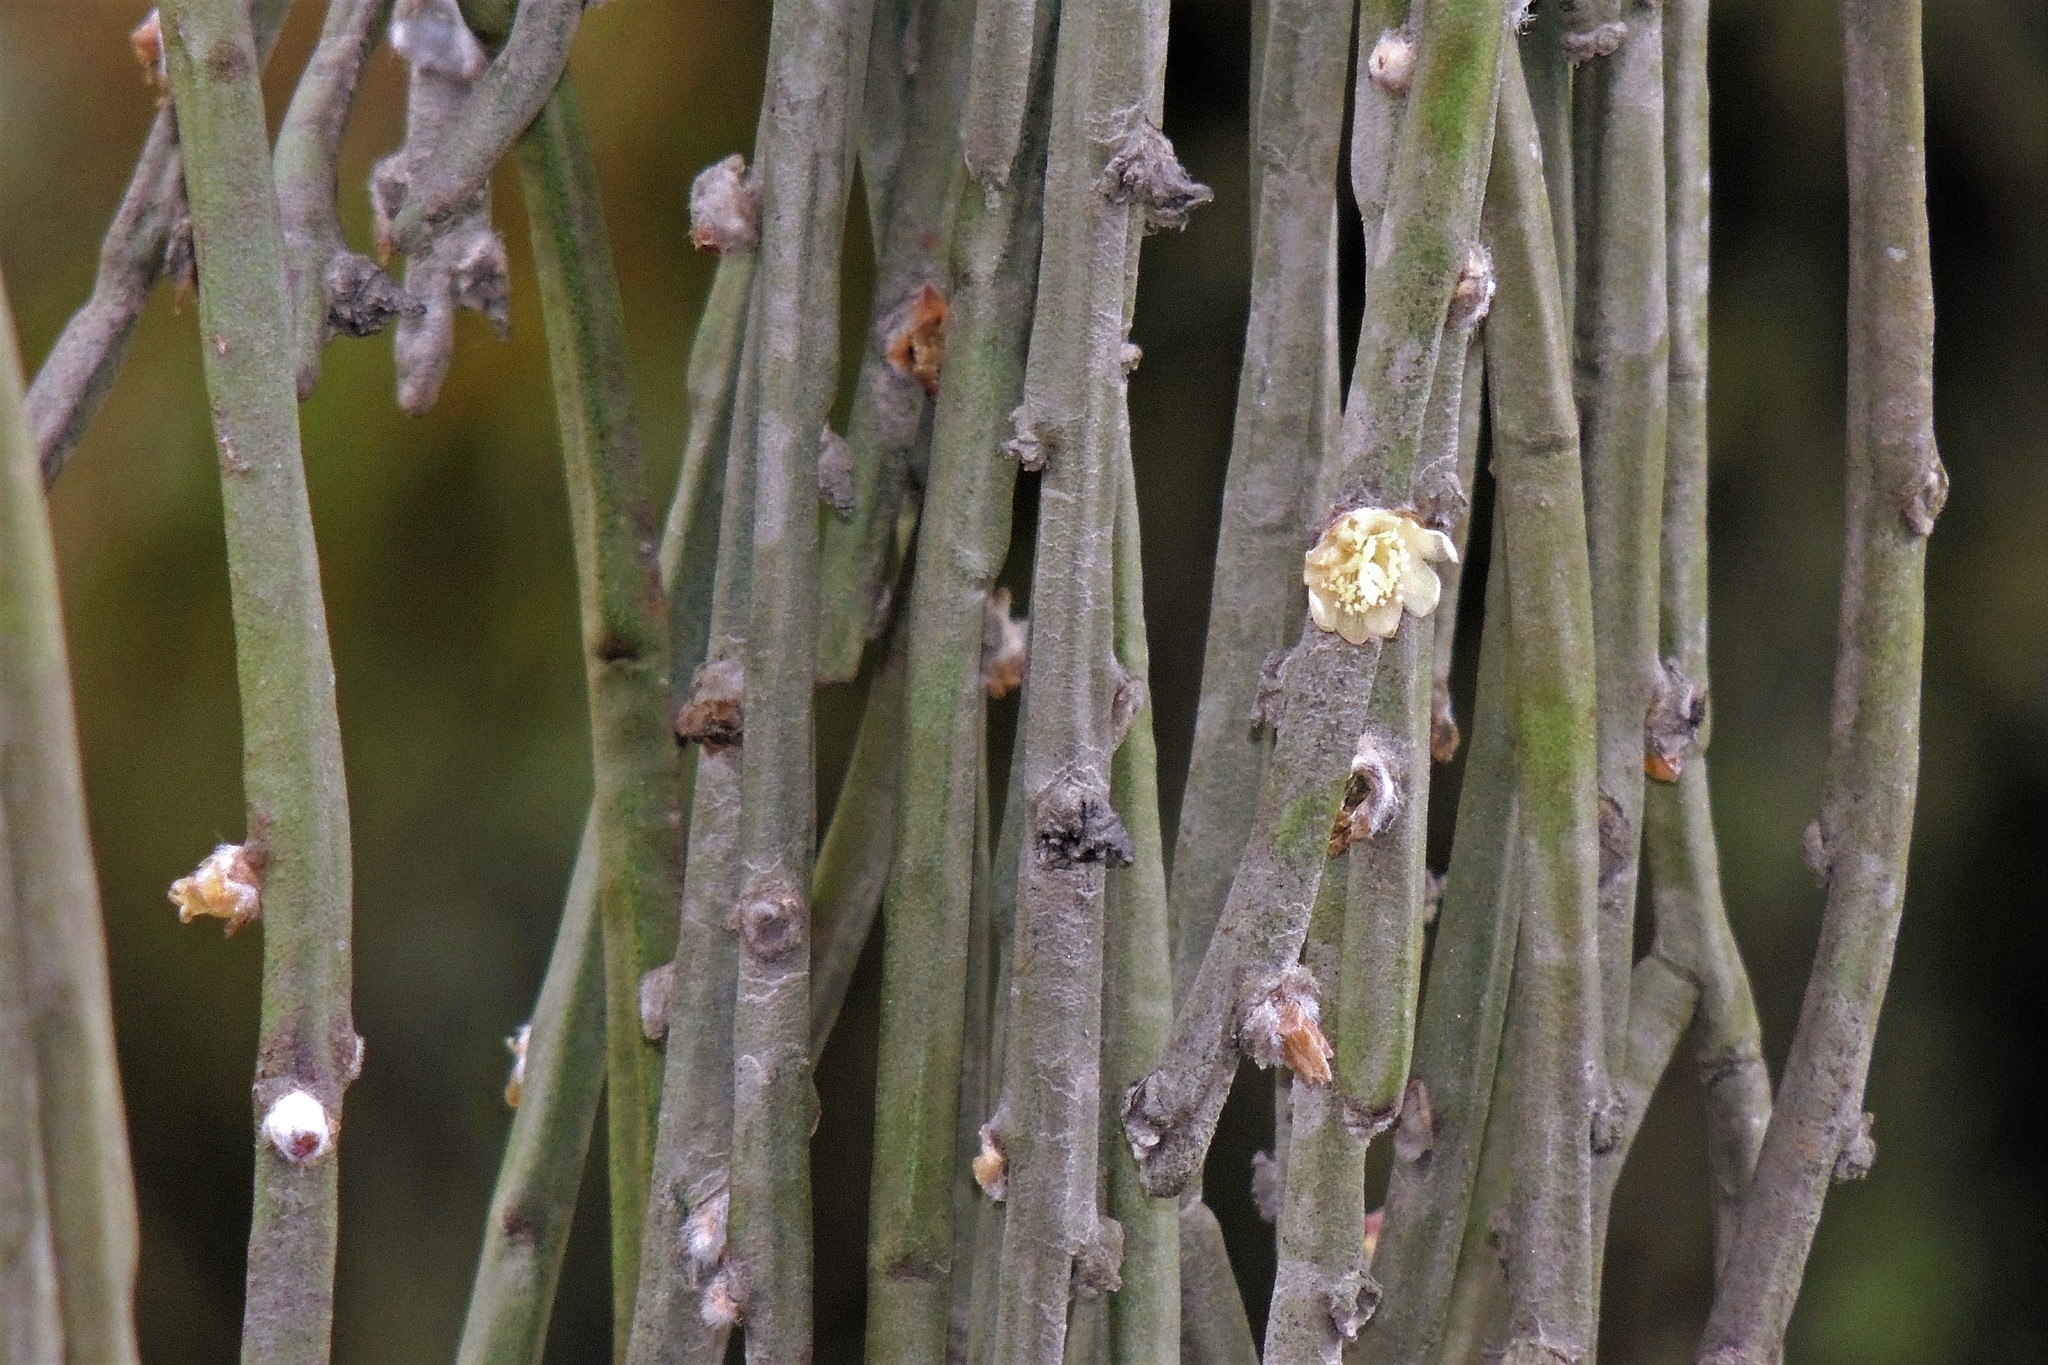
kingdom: Plantae
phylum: Tracheophyta
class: Magnoliopsida
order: Caryophyllales
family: Cactaceae
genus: Rhipsalis
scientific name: Rhipsalis floccosa
